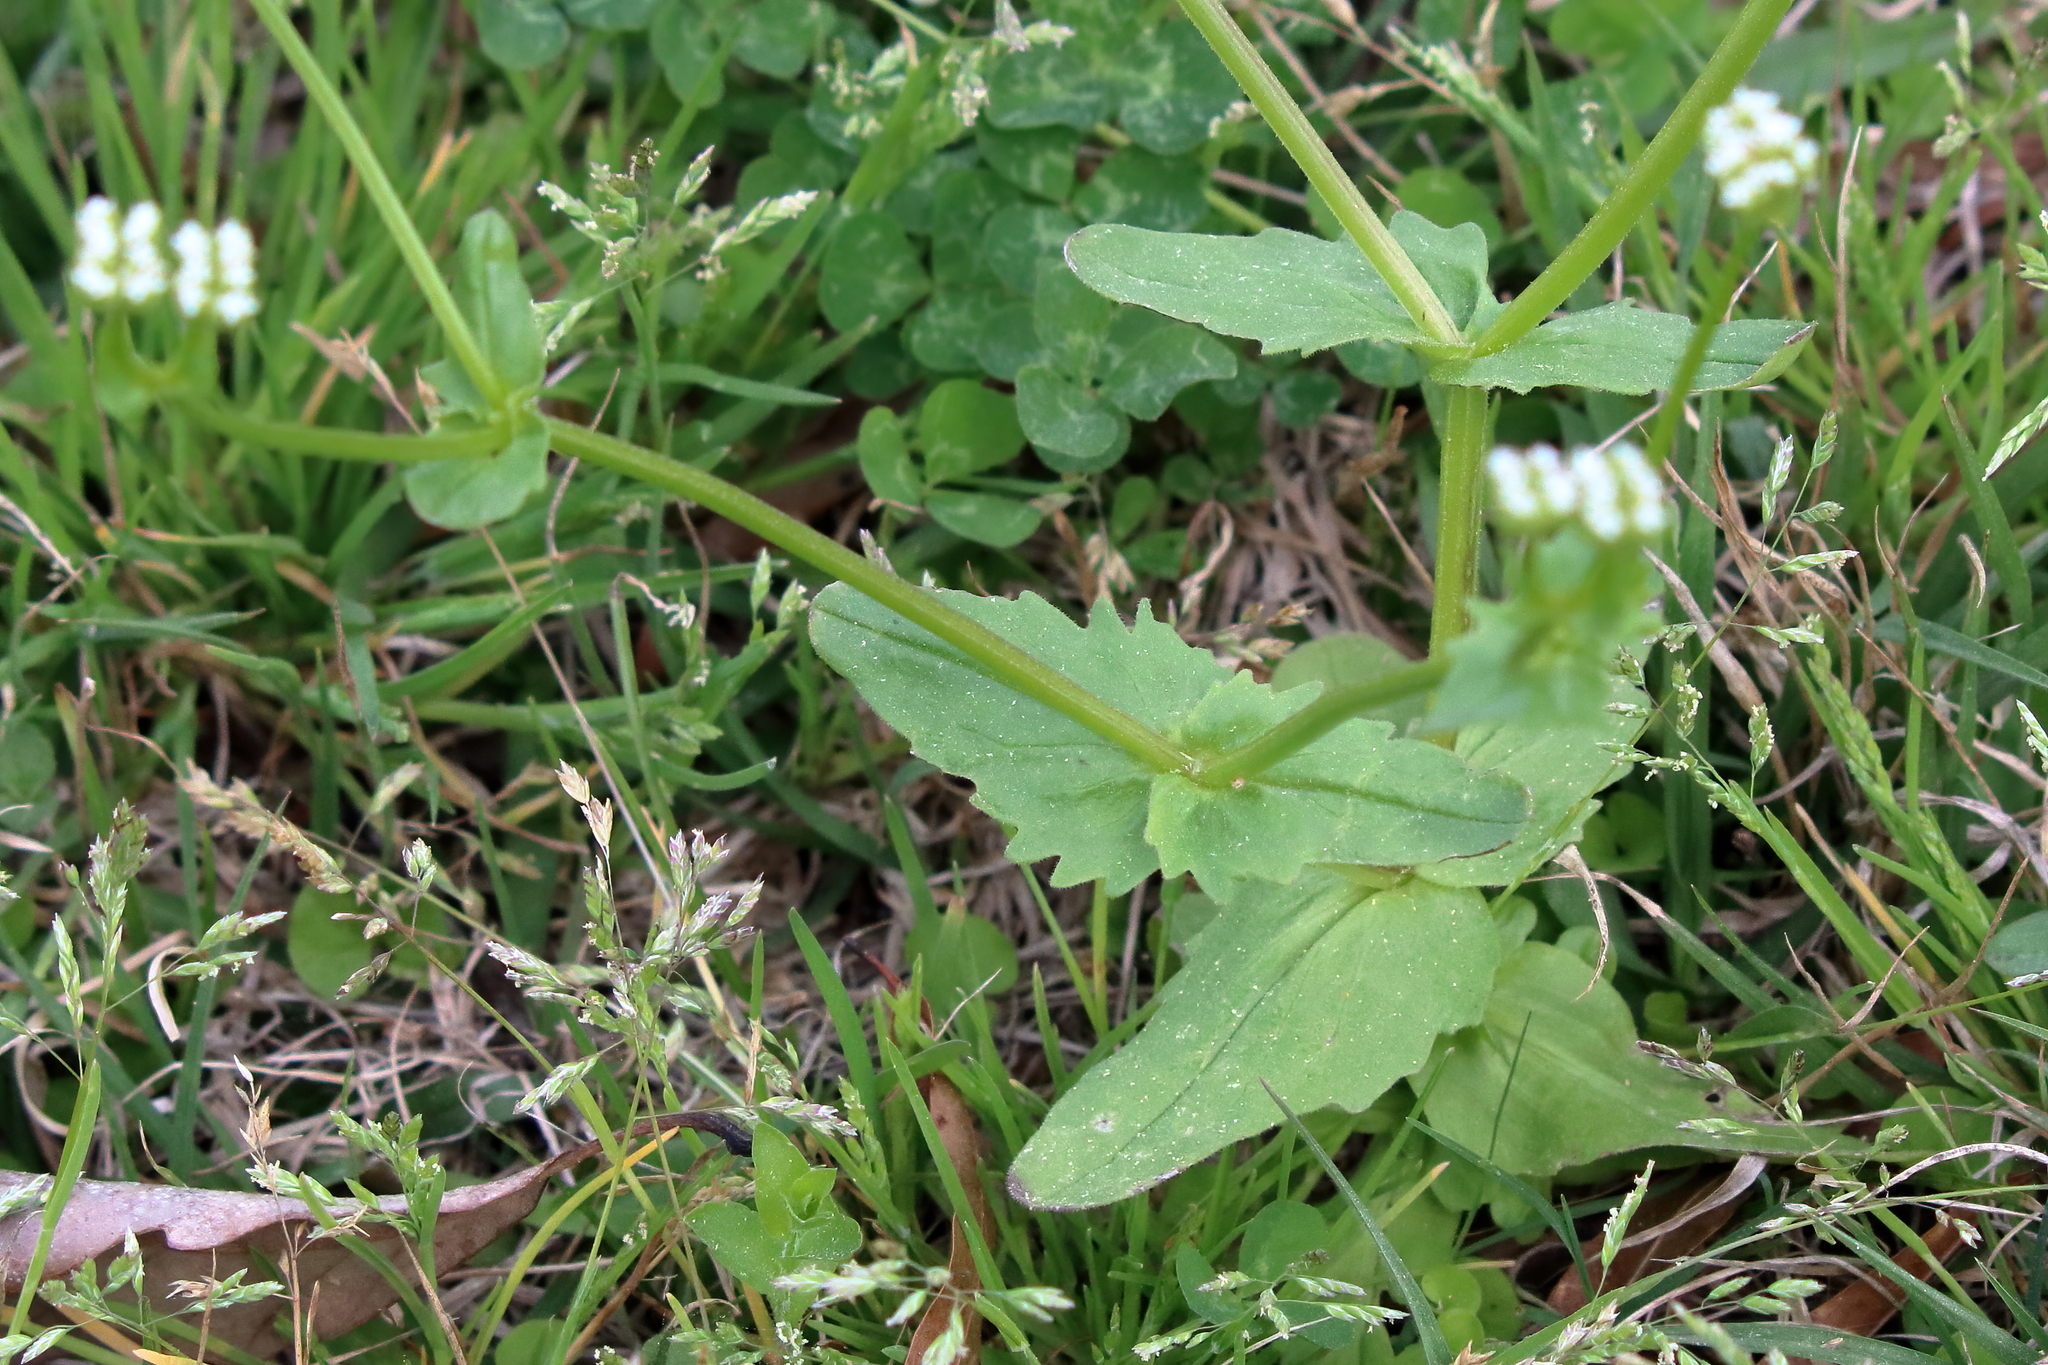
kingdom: Plantae
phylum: Tracheophyta
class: Magnoliopsida
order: Dipsacales
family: Caprifoliaceae
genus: Valerianella
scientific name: Valerianella radiata
